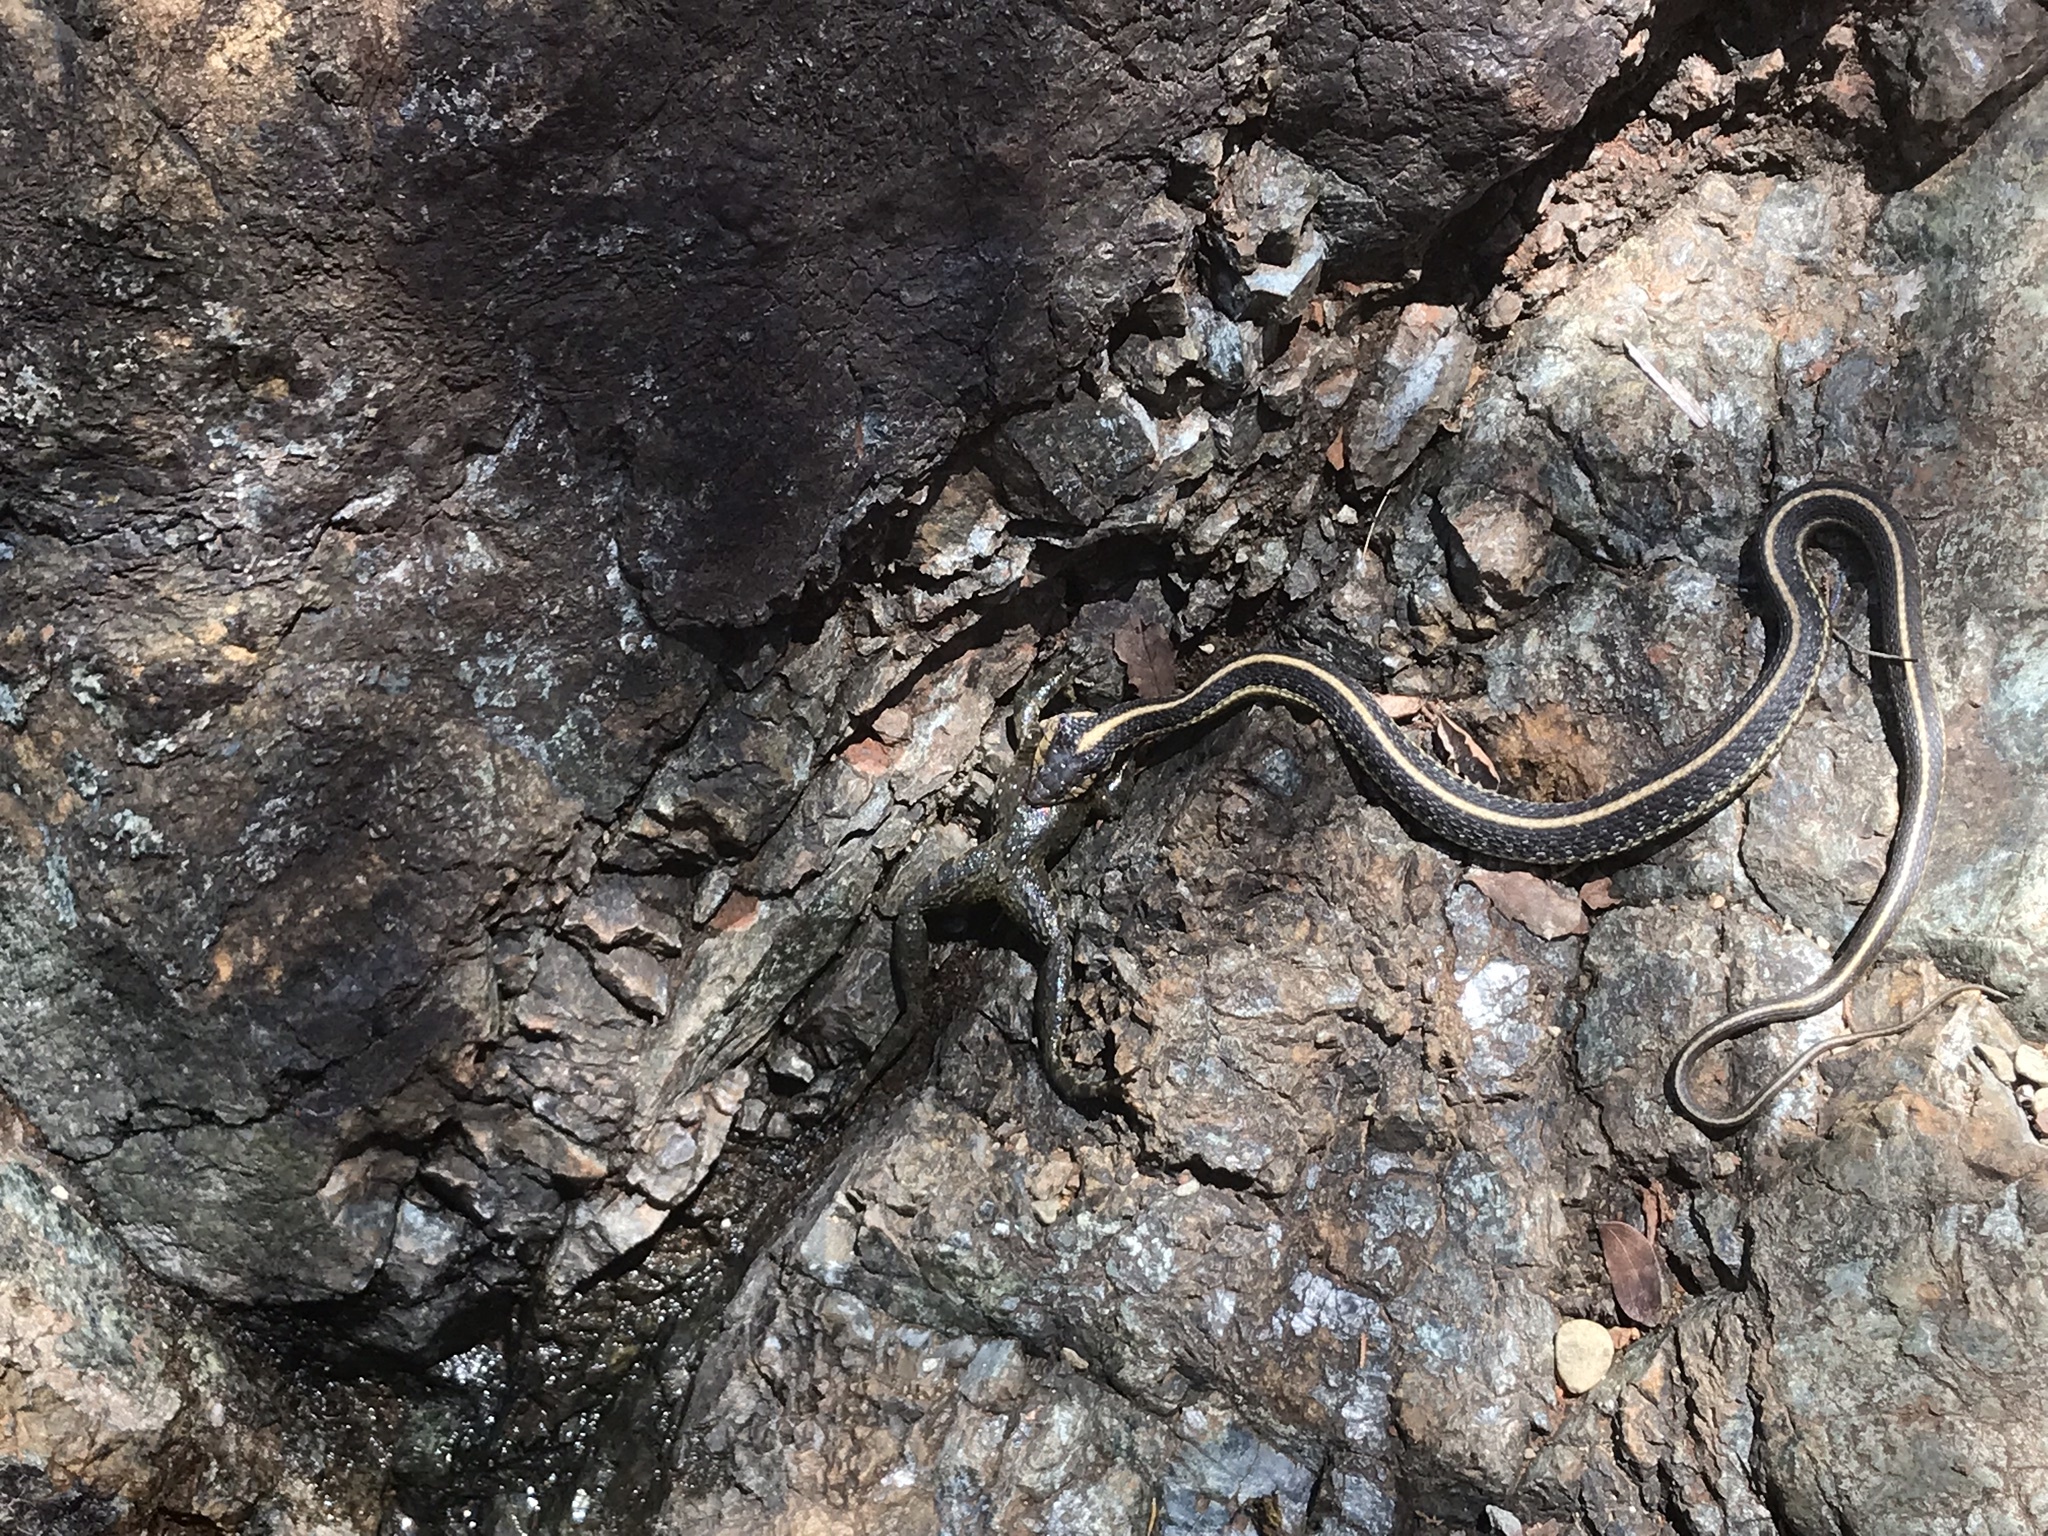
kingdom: Animalia
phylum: Chordata
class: Squamata
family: Colubridae
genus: Thamnophis
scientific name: Thamnophis atratus
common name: Pacific coast aquatic garter snake
